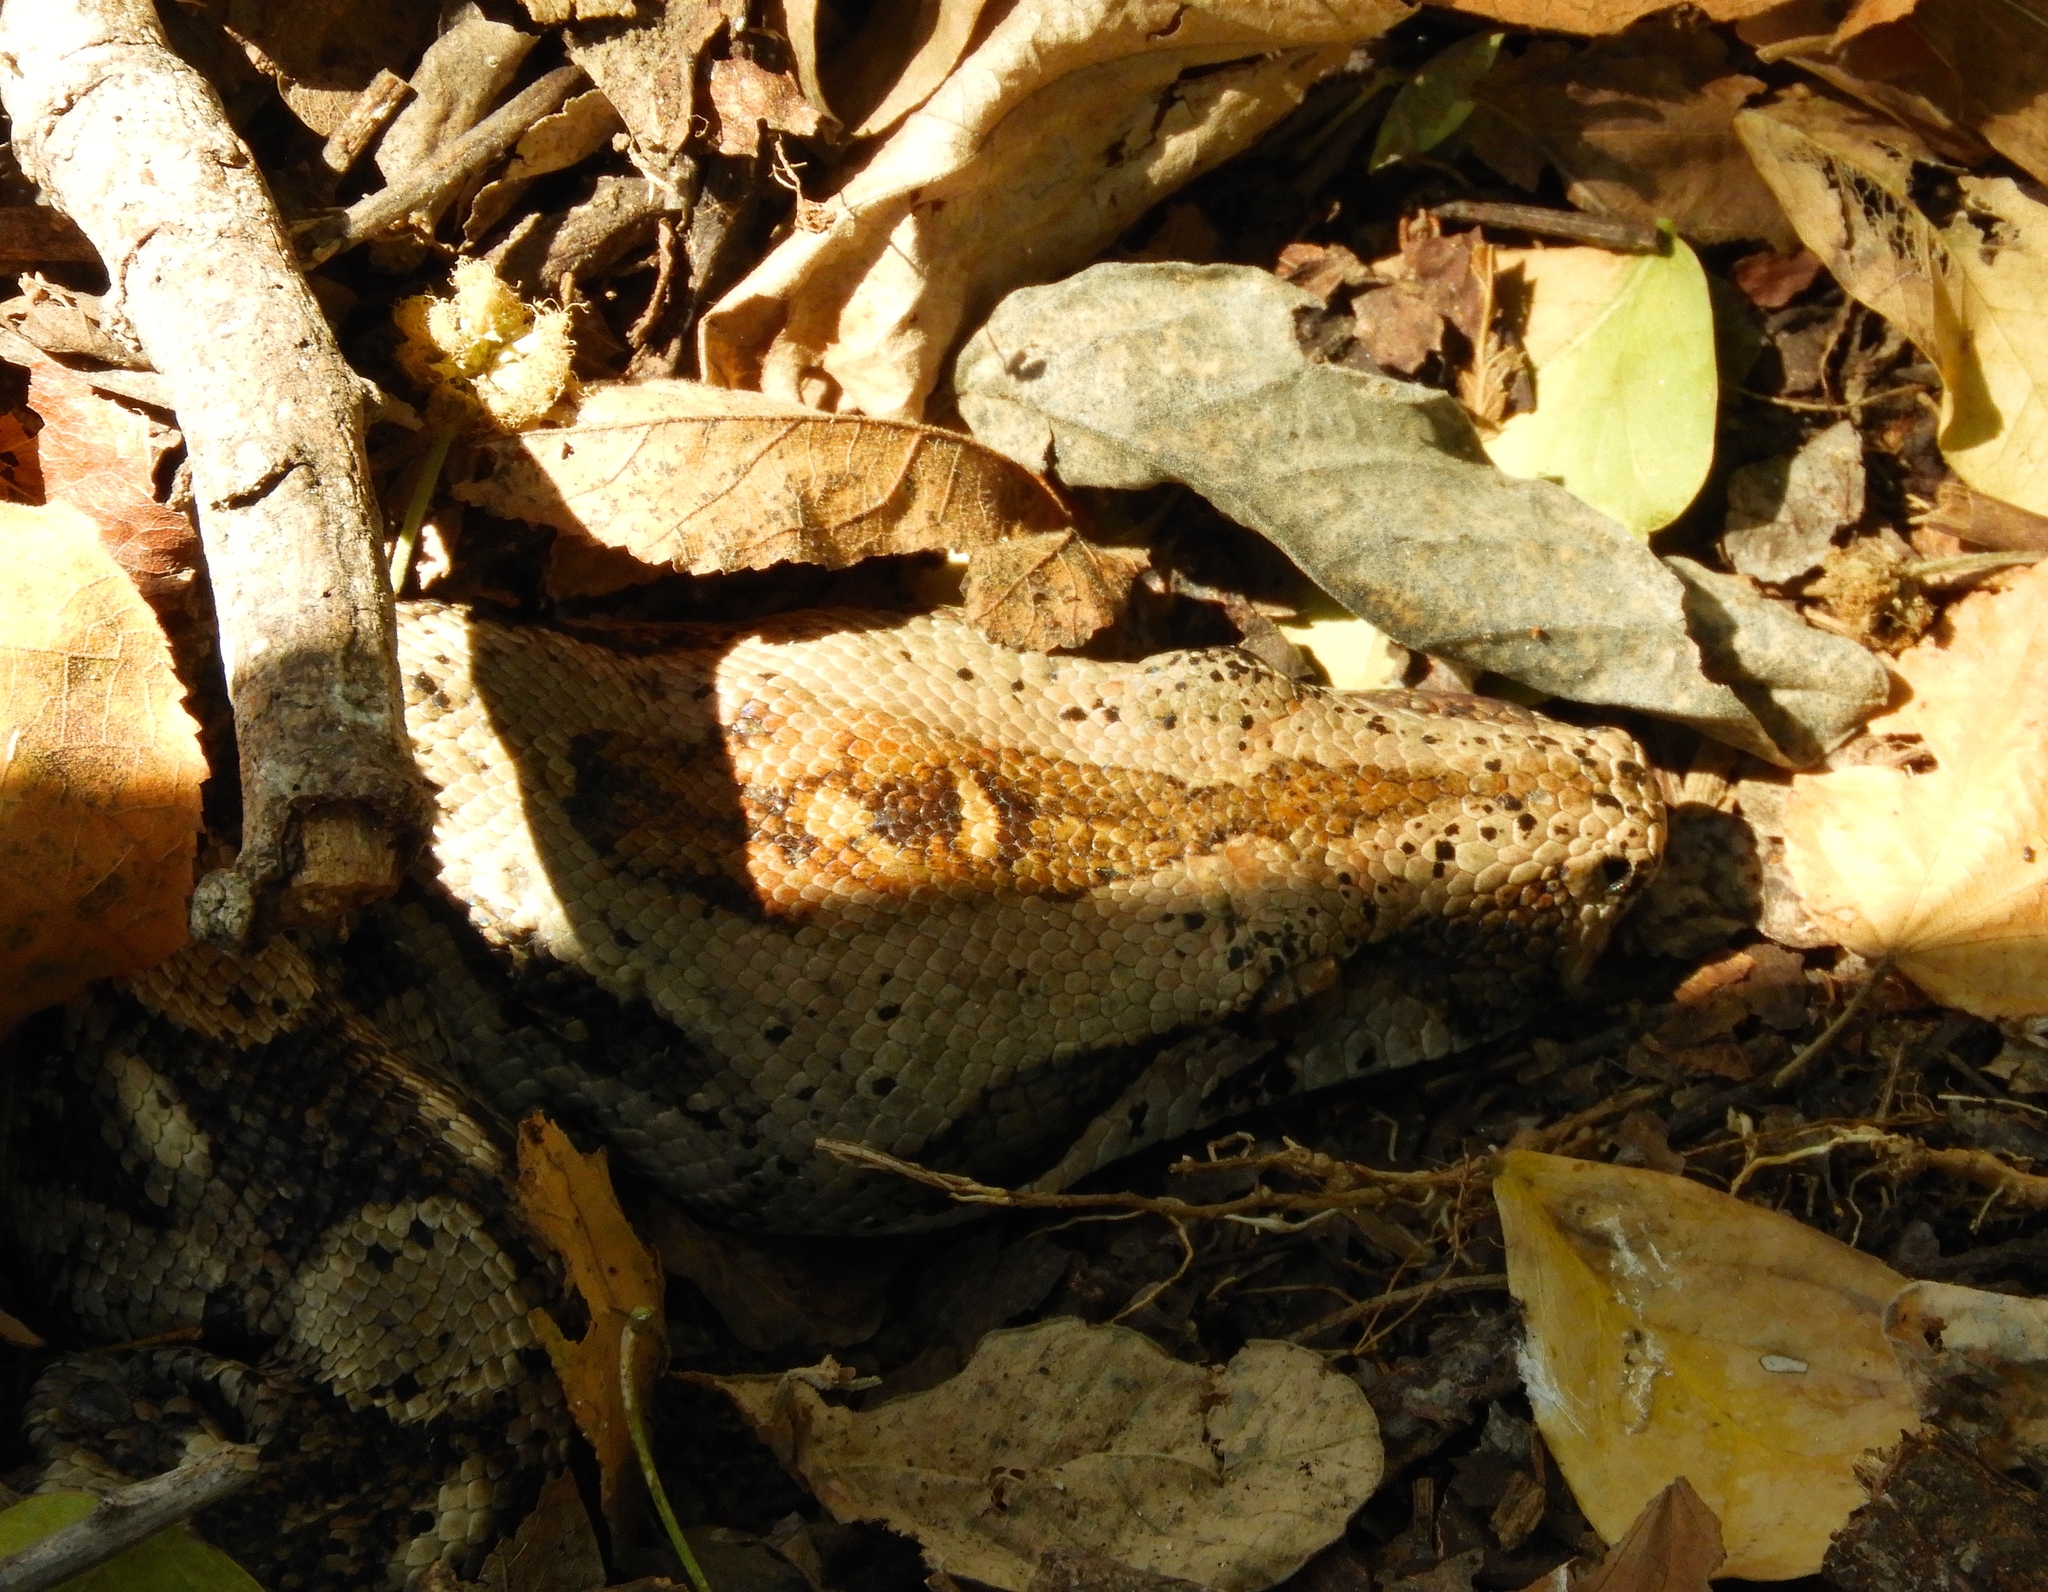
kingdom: Animalia
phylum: Chordata
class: Squamata
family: Boidae
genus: Boa
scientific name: Boa
